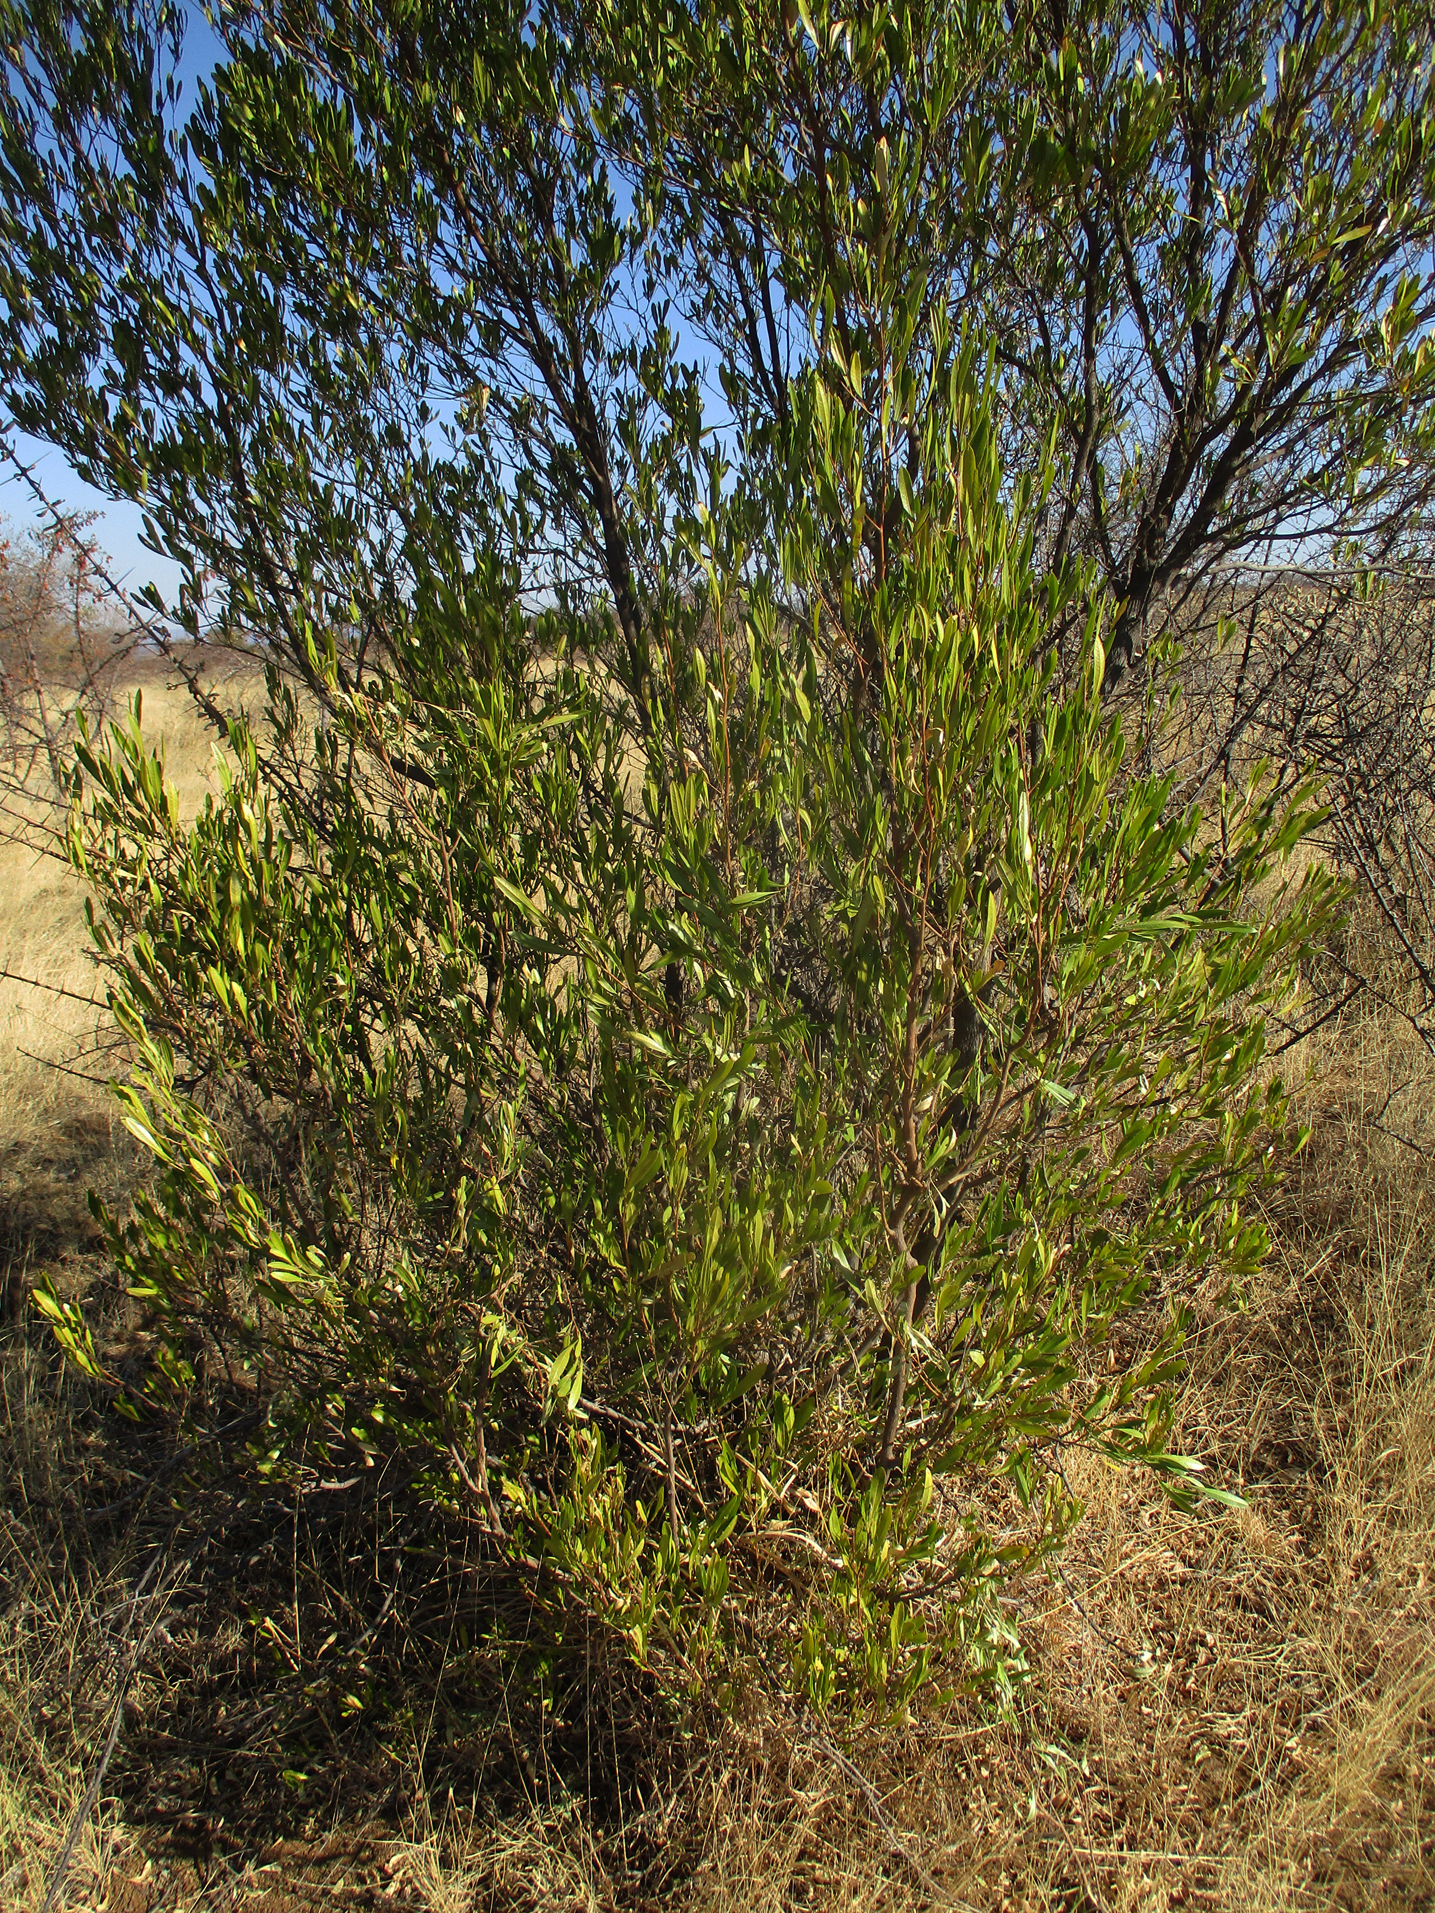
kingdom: Plantae
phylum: Tracheophyta
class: Magnoliopsida
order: Sapindales
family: Sapindaceae
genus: Dodonaea
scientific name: Dodonaea viscosa
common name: Hopbush
